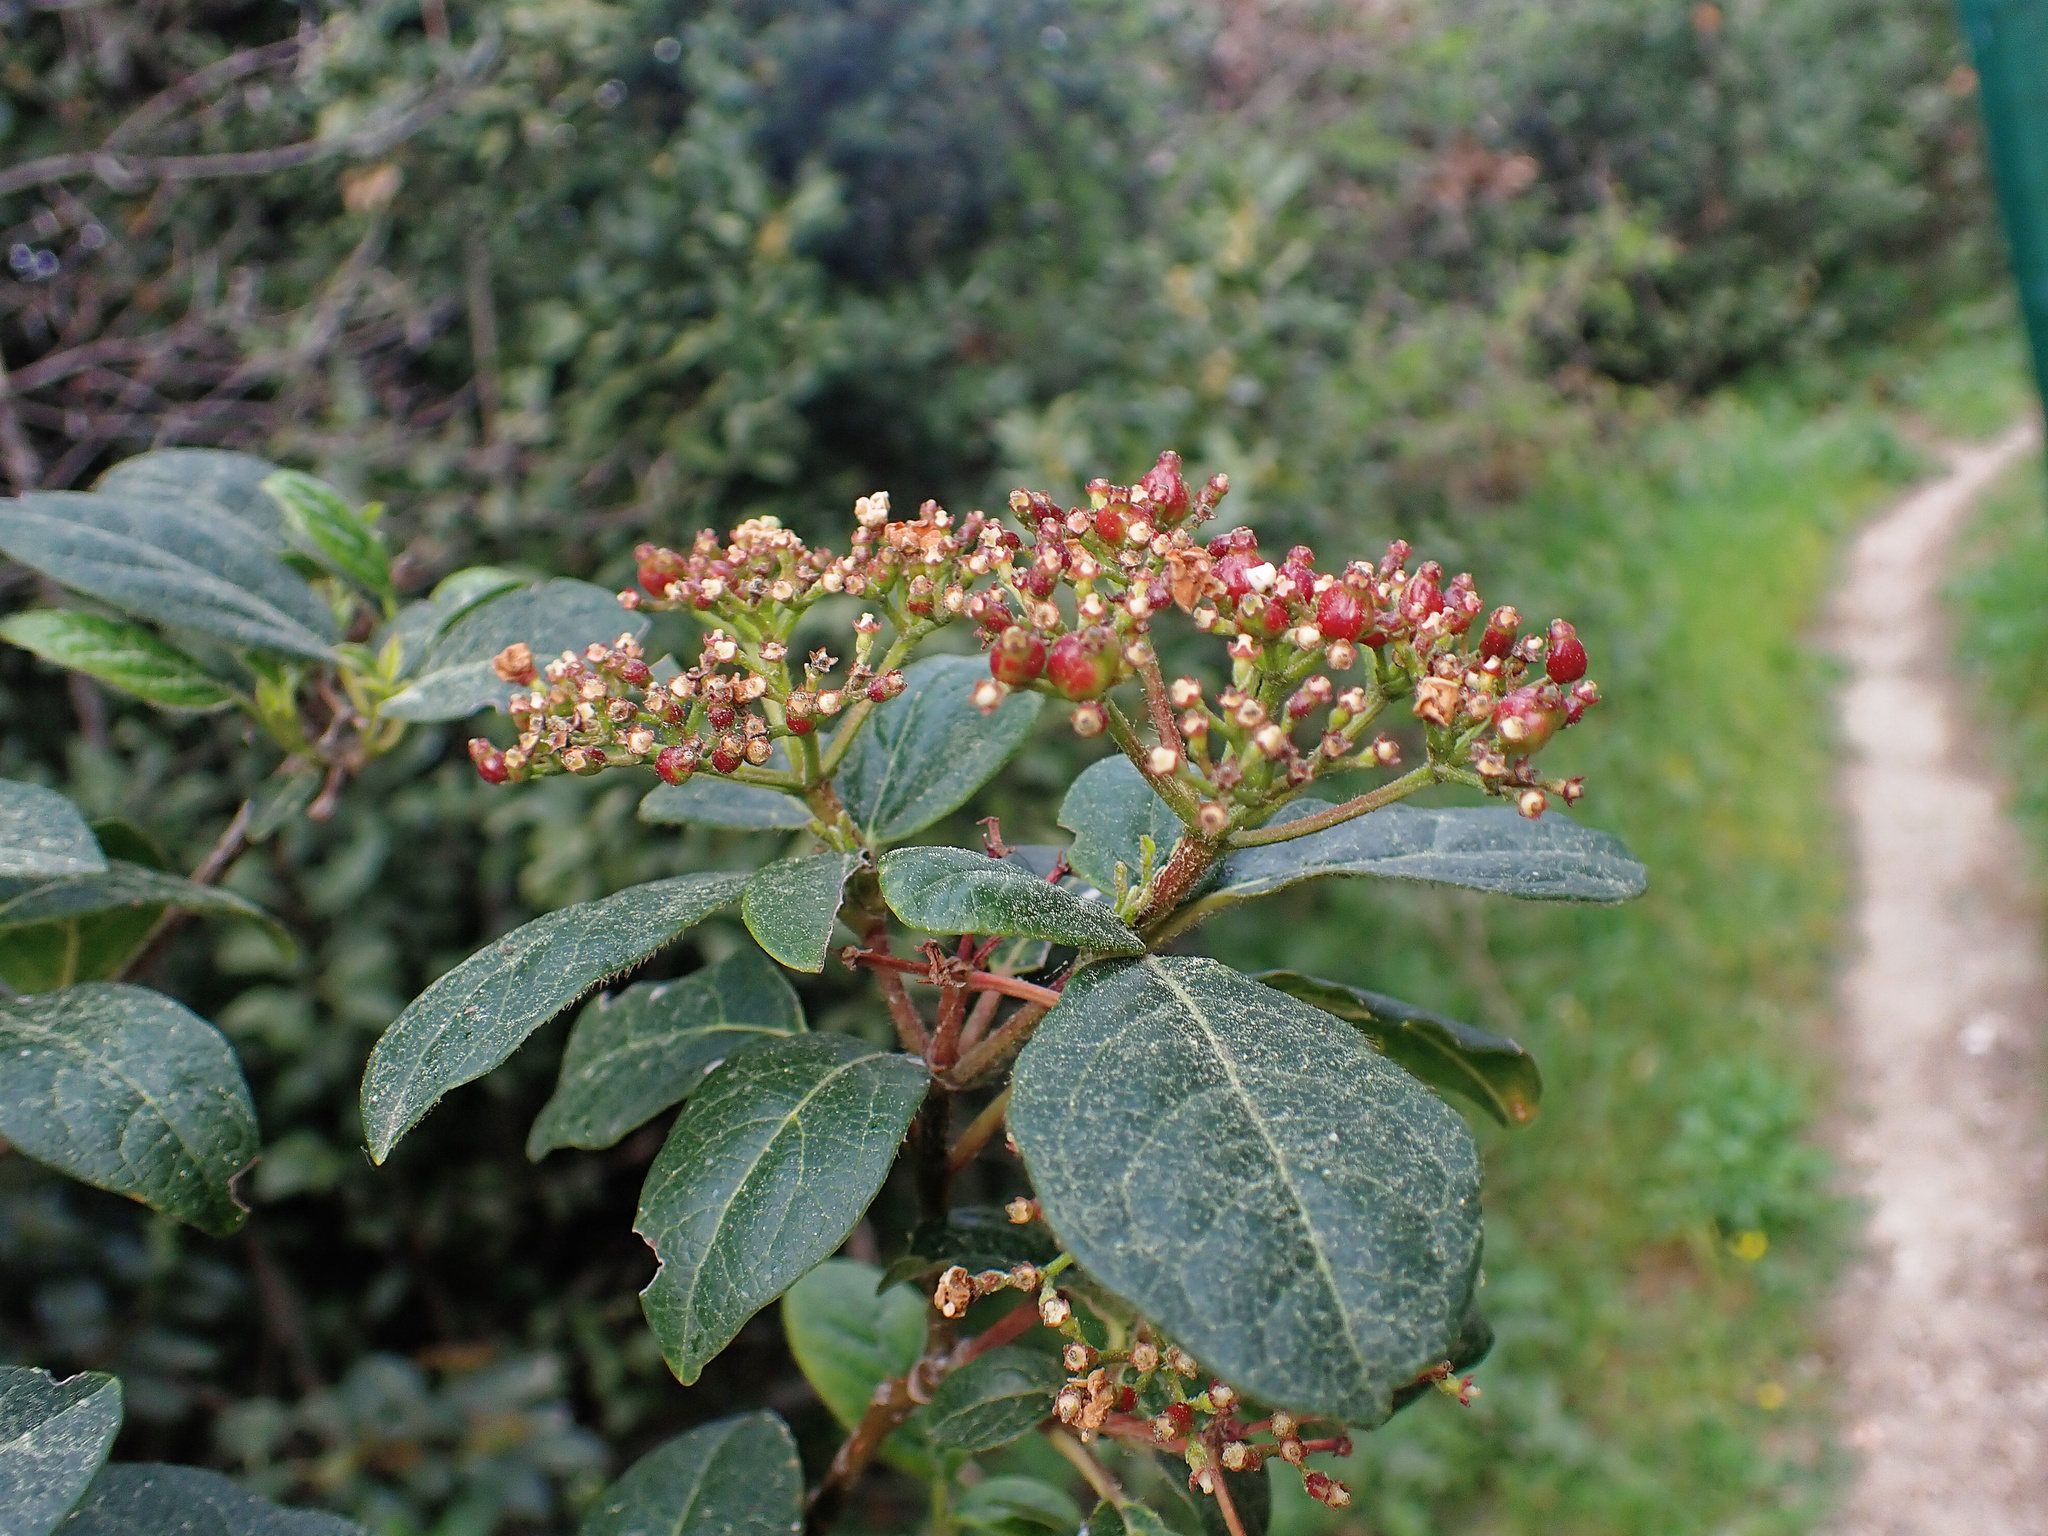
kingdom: Plantae
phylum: Tracheophyta
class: Magnoliopsida
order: Dipsacales
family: Viburnaceae
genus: Viburnum
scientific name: Viburnum tinus
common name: Laurustinus
